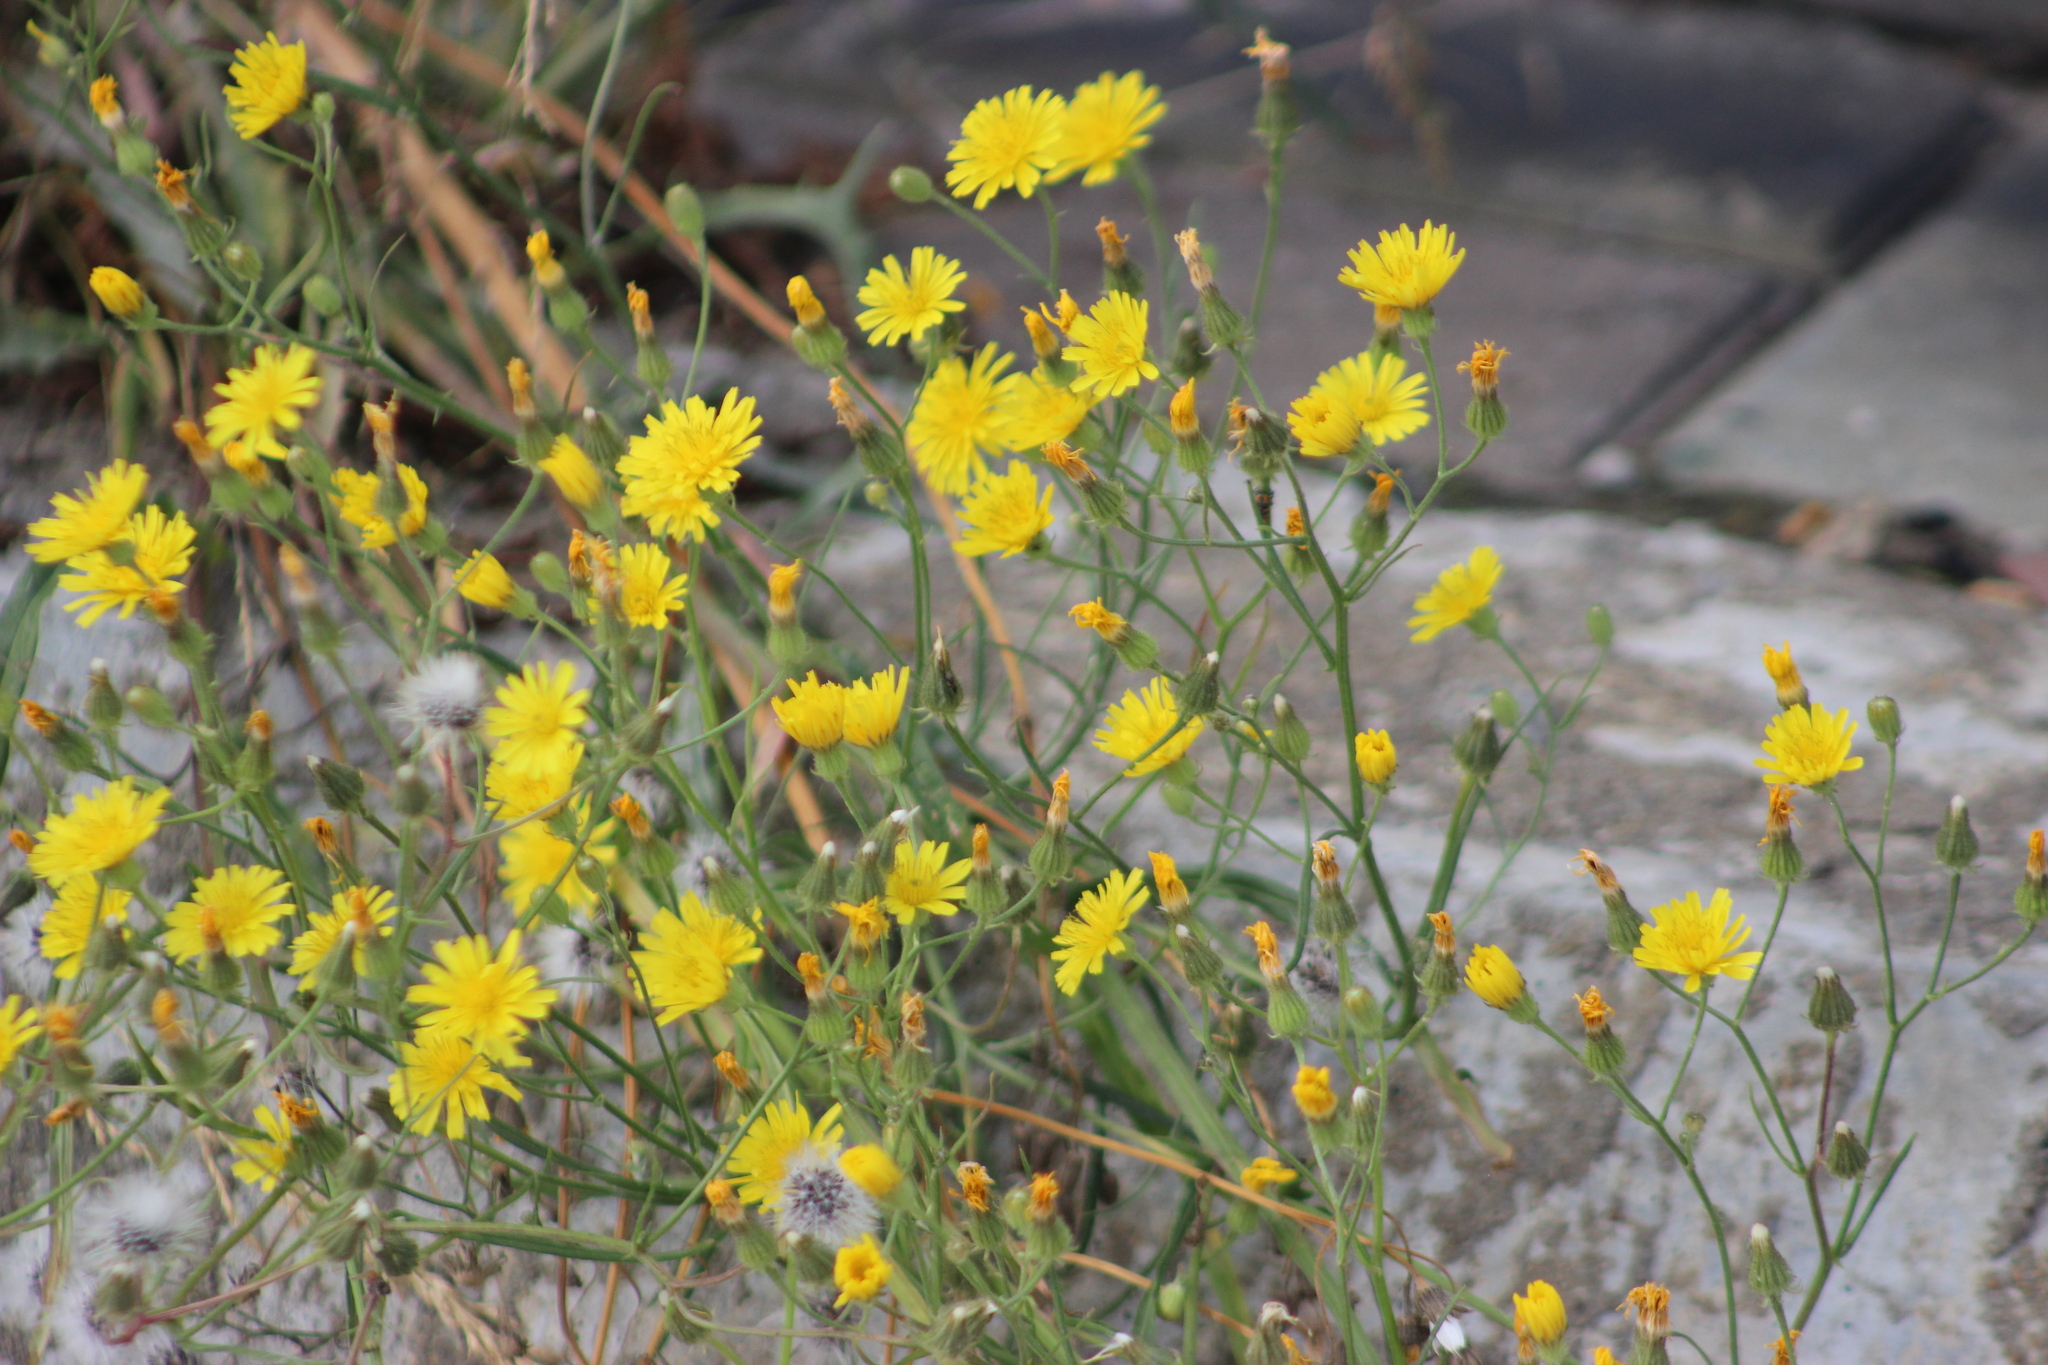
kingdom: Plantae
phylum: Tracheophyta
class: Magnoliopsida
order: Asterales
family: Asteraceae
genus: Crepis
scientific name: Crepis tectorum
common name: Narrow-leaved hawk's-beard
